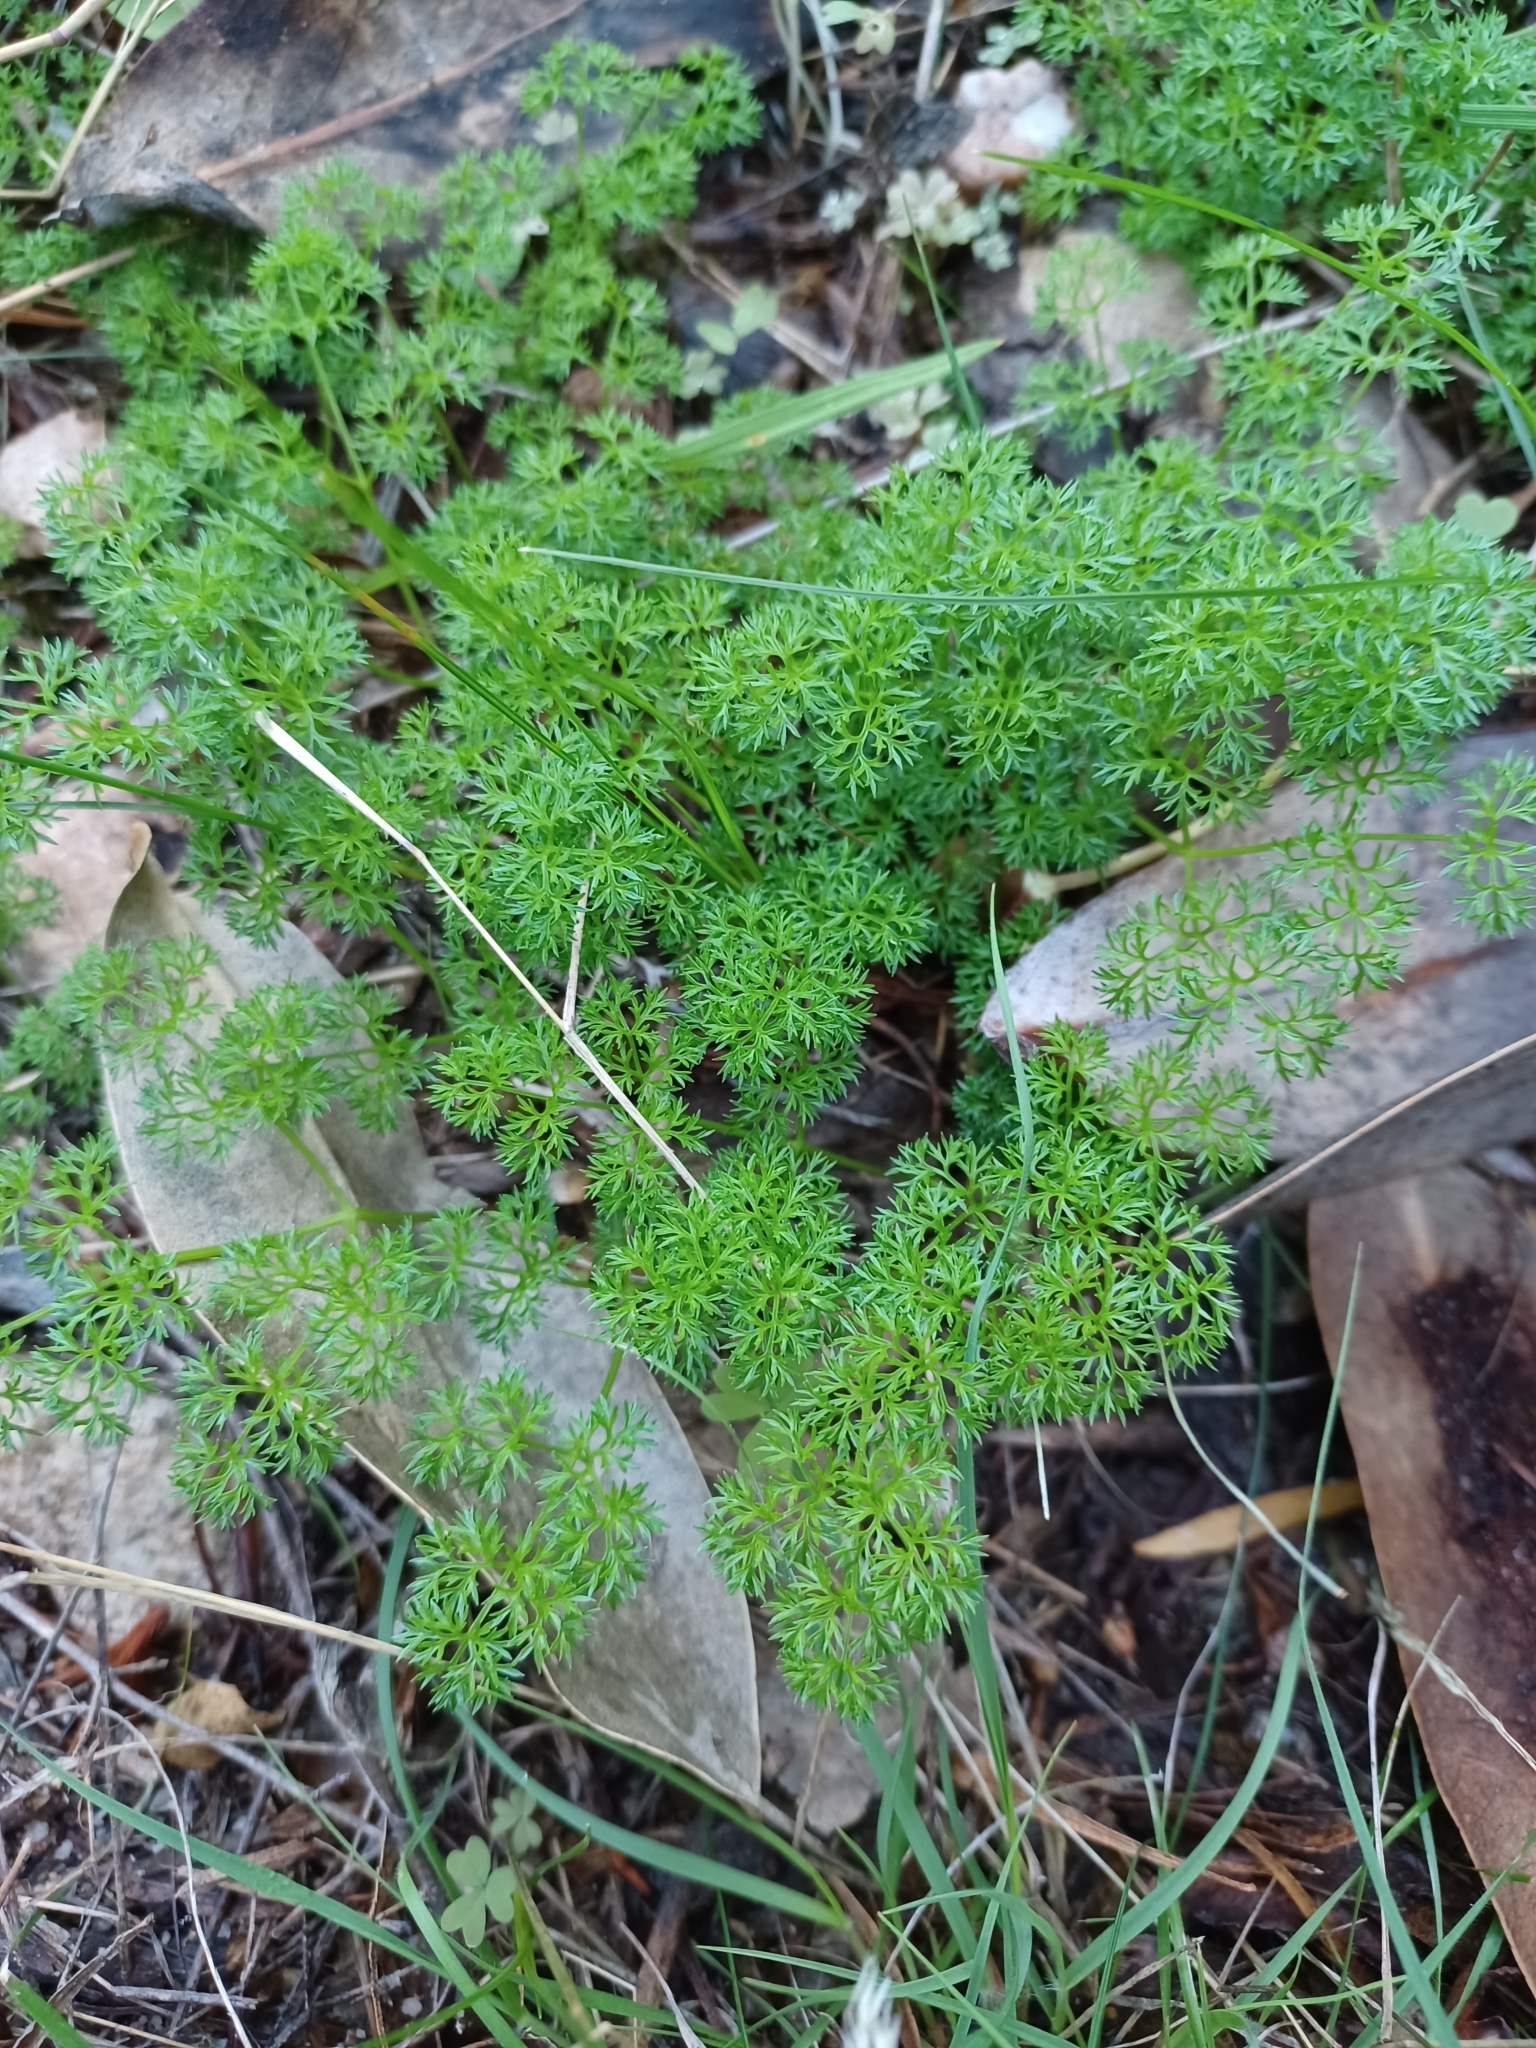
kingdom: Plantae
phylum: Tracheophyta
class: Magnoliopsida
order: Apiales
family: Apiaceae
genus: Annesorhiza
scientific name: Annesorhiza macrocarpa
